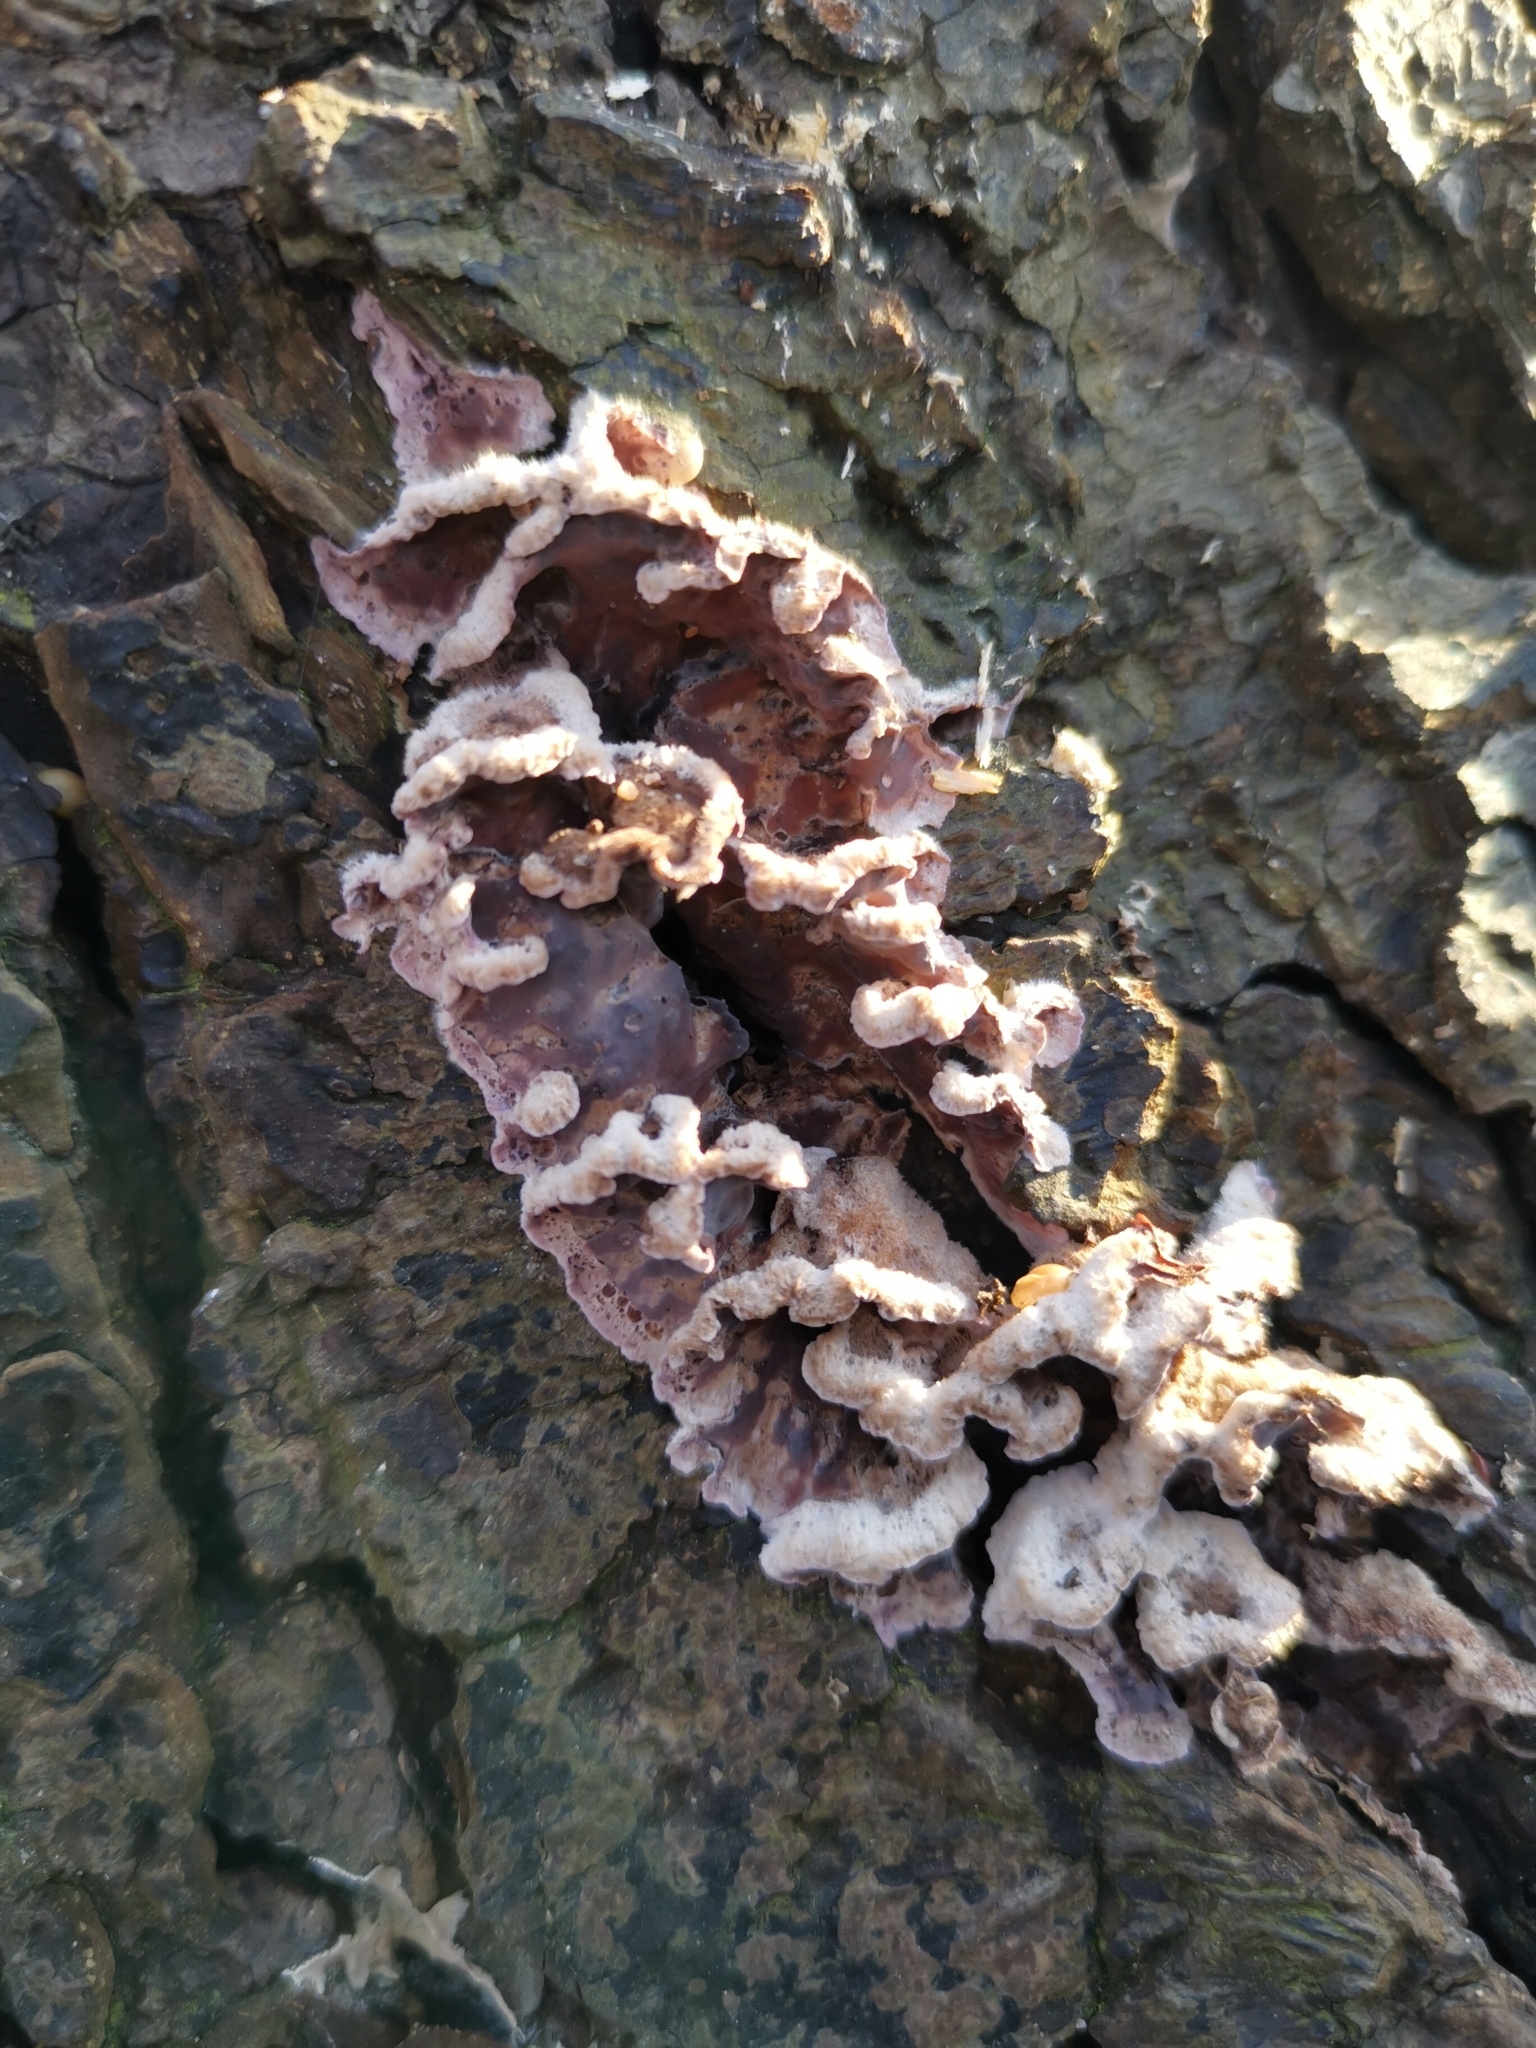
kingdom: Fungi
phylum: Basidiomycota
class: Agaricomycetes
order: Agaricales
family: Cyphellaceae
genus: Chondrostereum
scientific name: Chondrostereum purpureum
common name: Silver leaf disease
